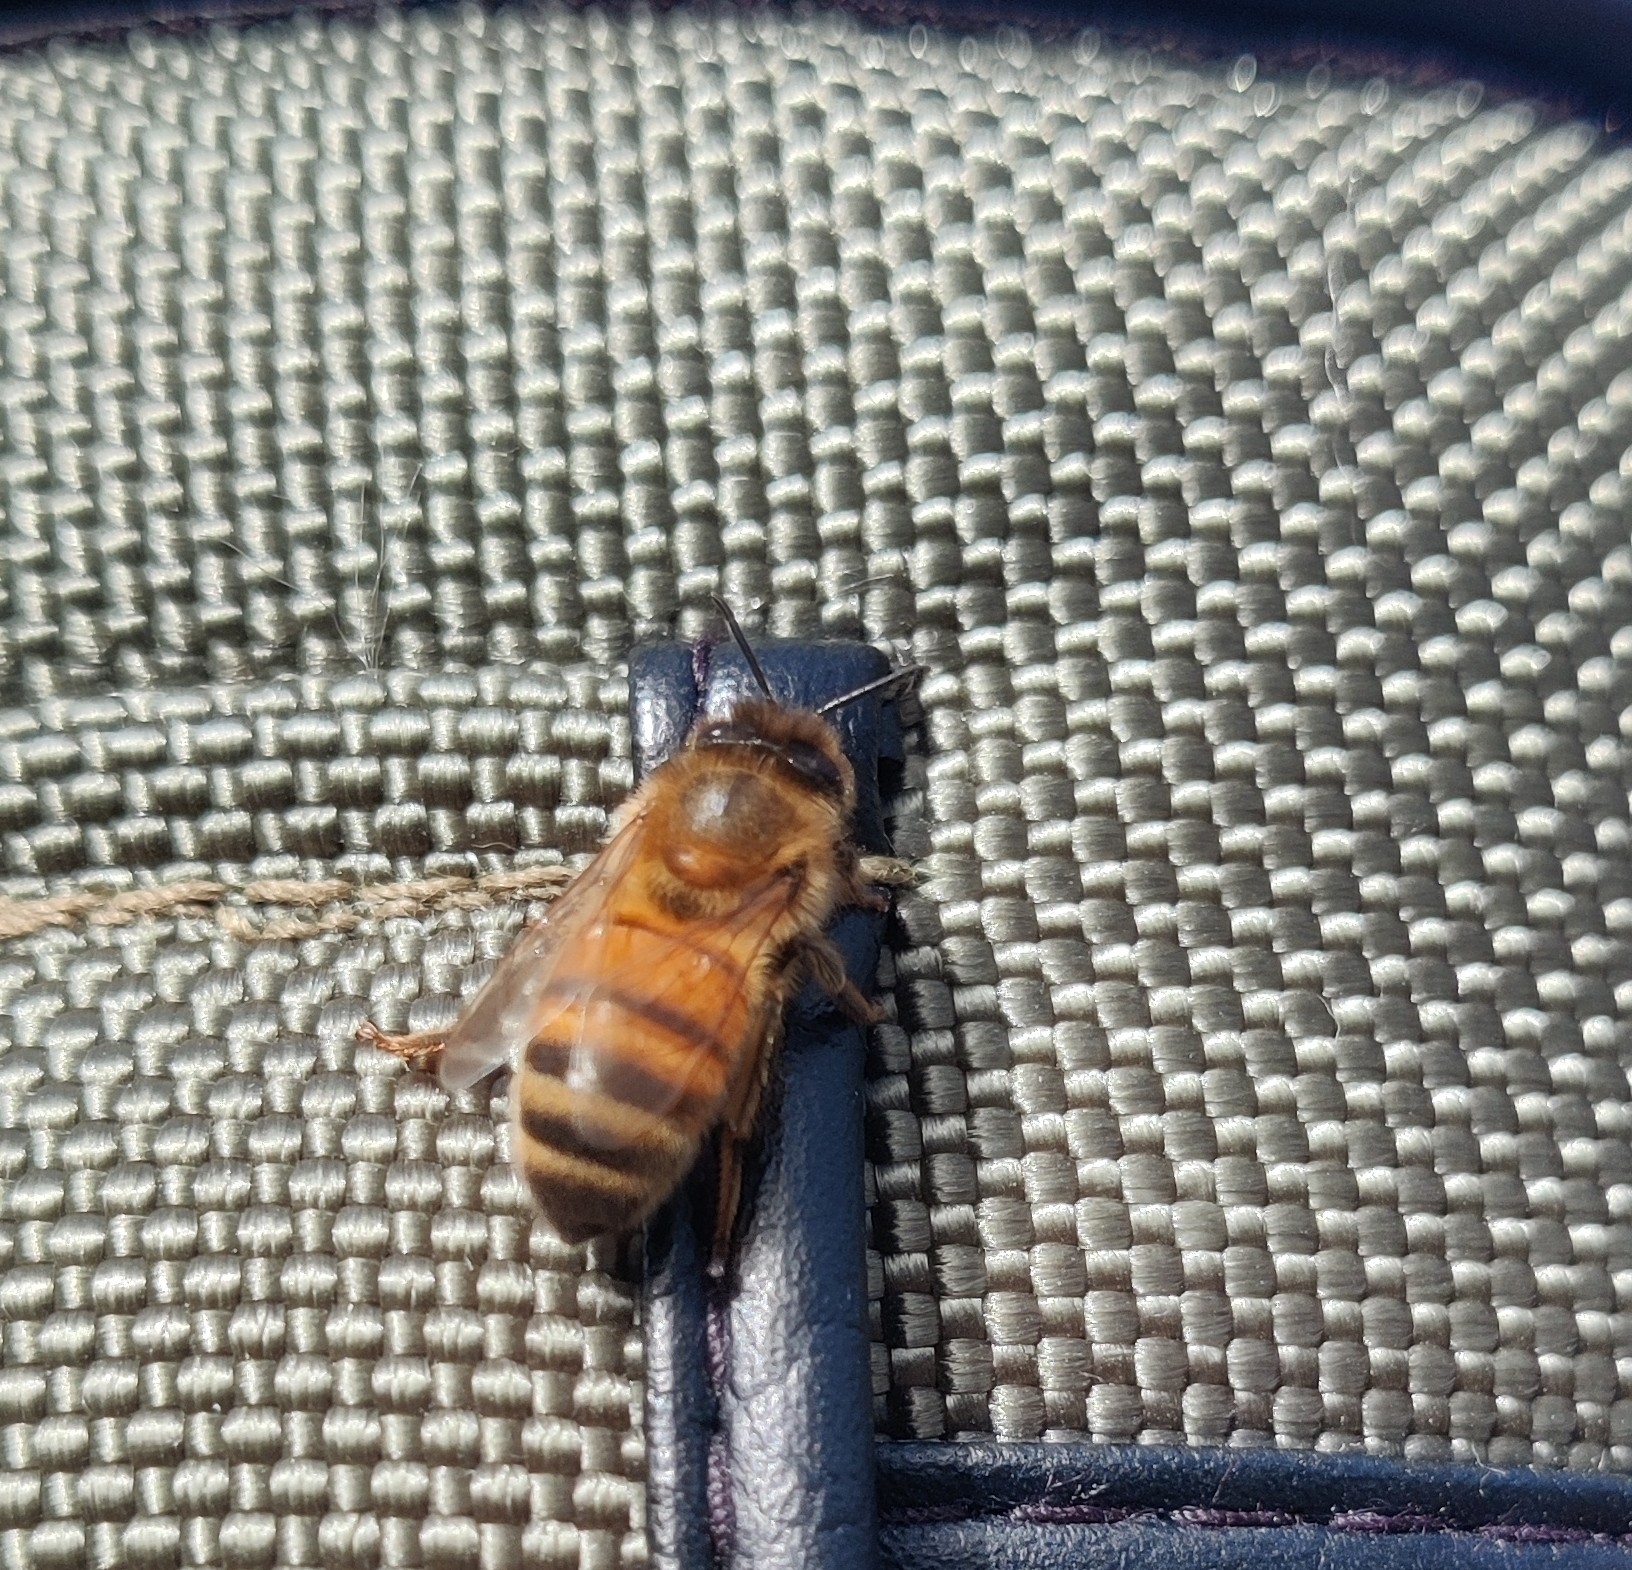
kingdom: Animalia
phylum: Arthropoda
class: Insecta
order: Hymenoptera
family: Apidae
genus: Apis
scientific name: Apis mellifera
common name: Honey bee
